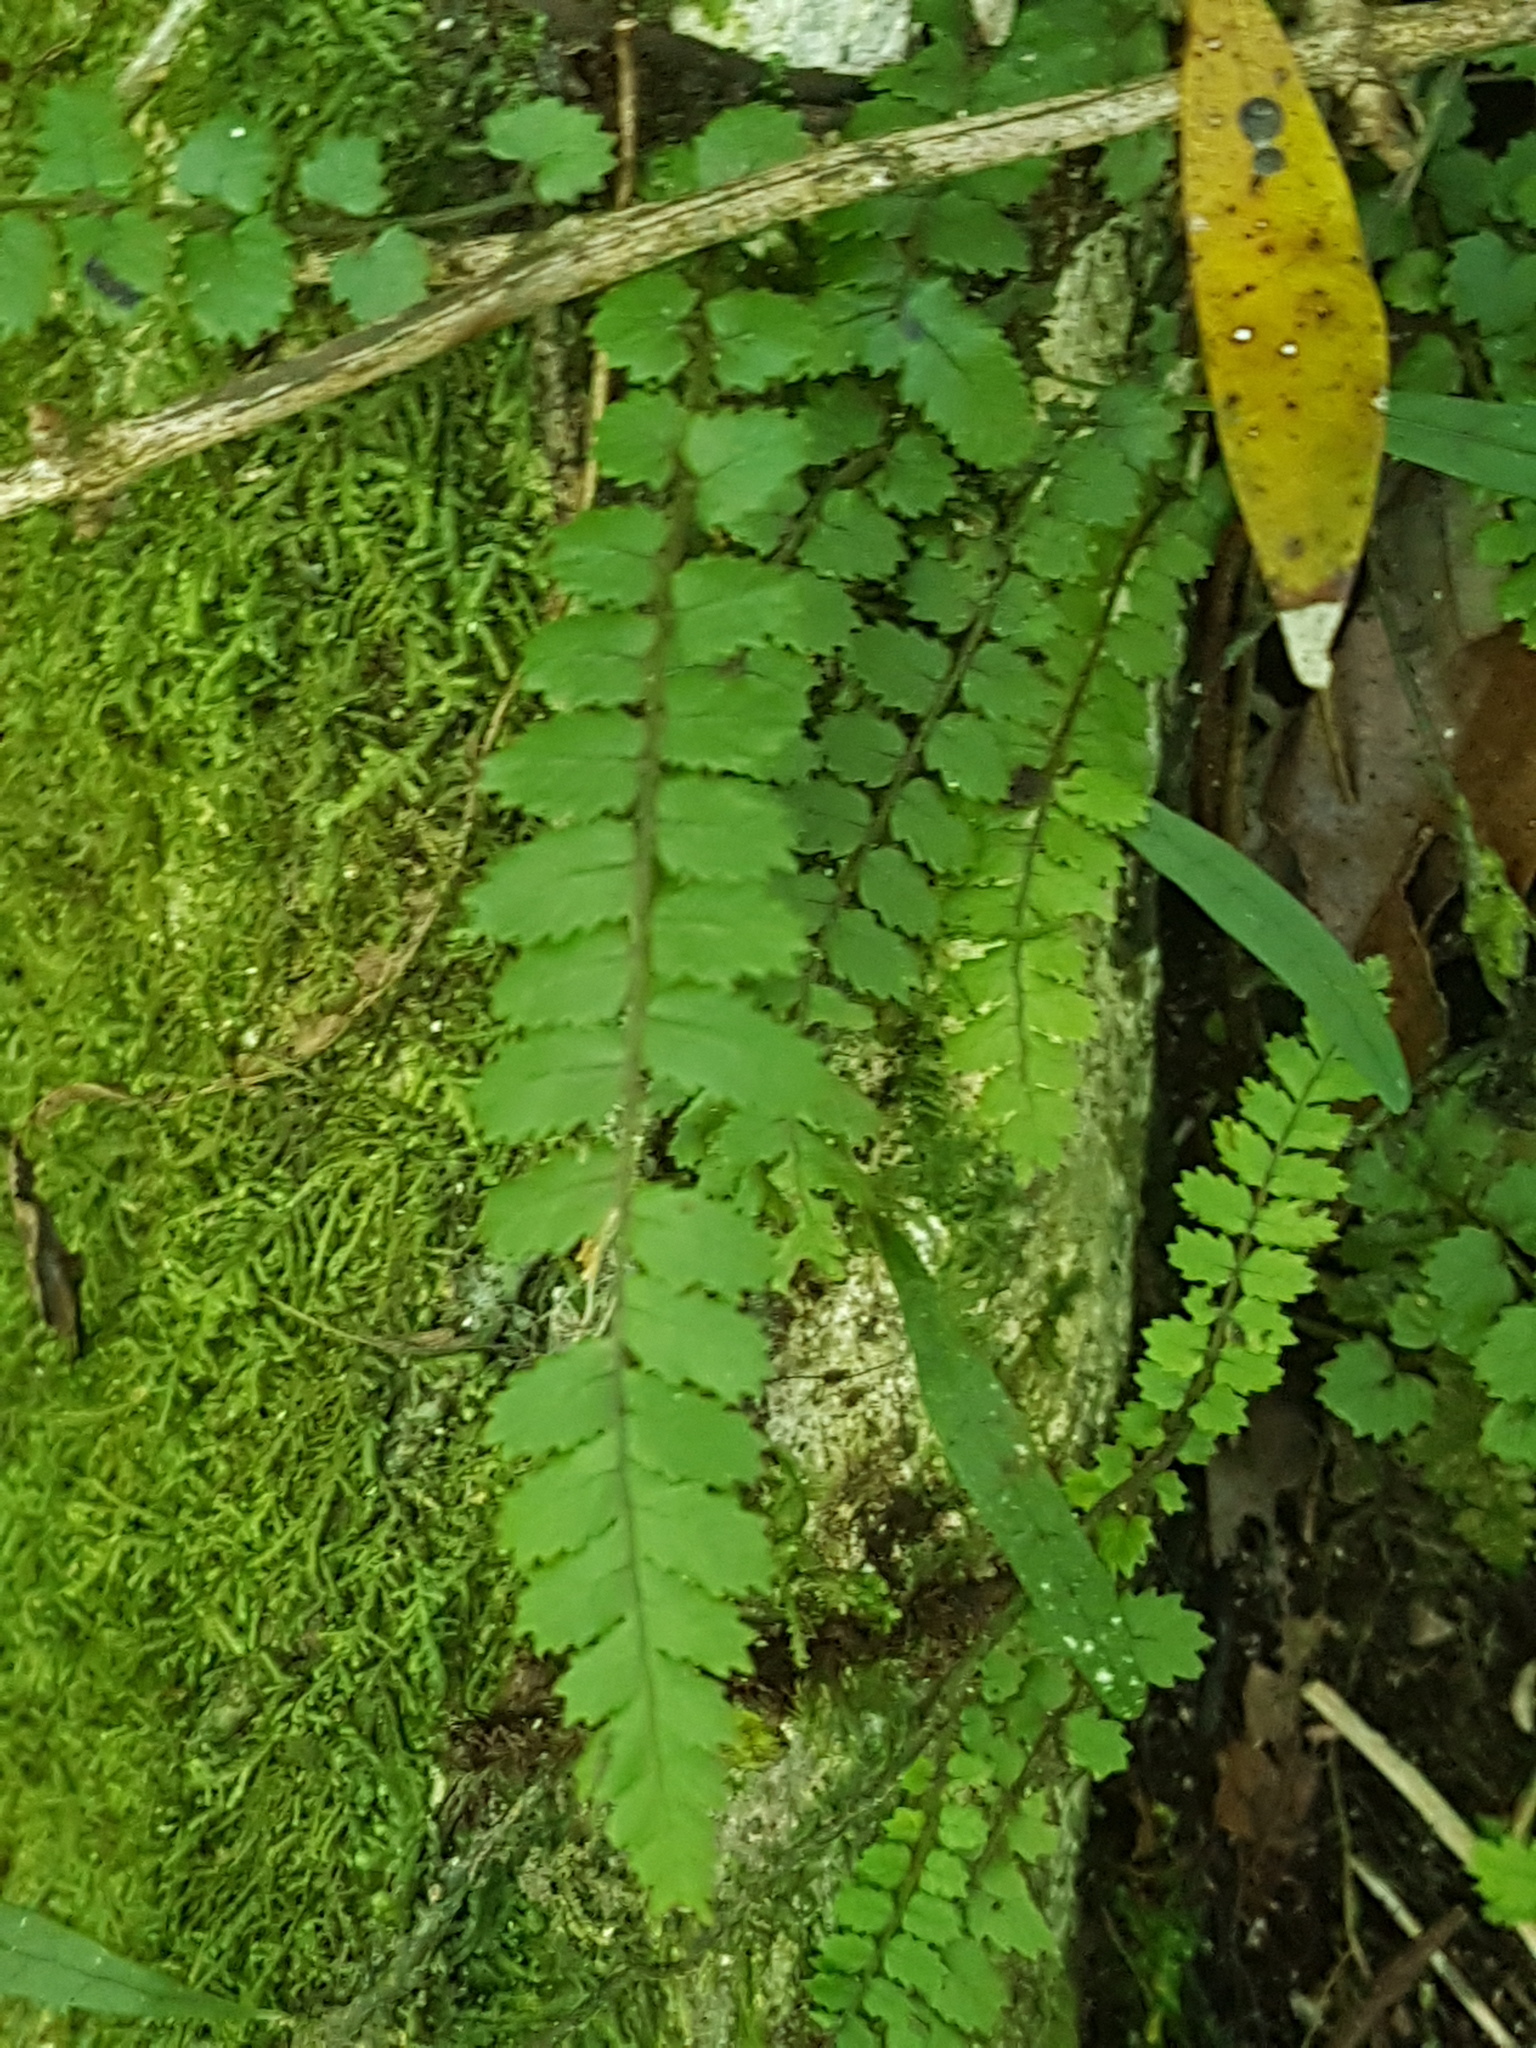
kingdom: Plantae
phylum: Tracheophyta
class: Polypodiopsida
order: Polypodiales
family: Blechnaceae
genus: Icarus
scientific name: Icarus filiformis
